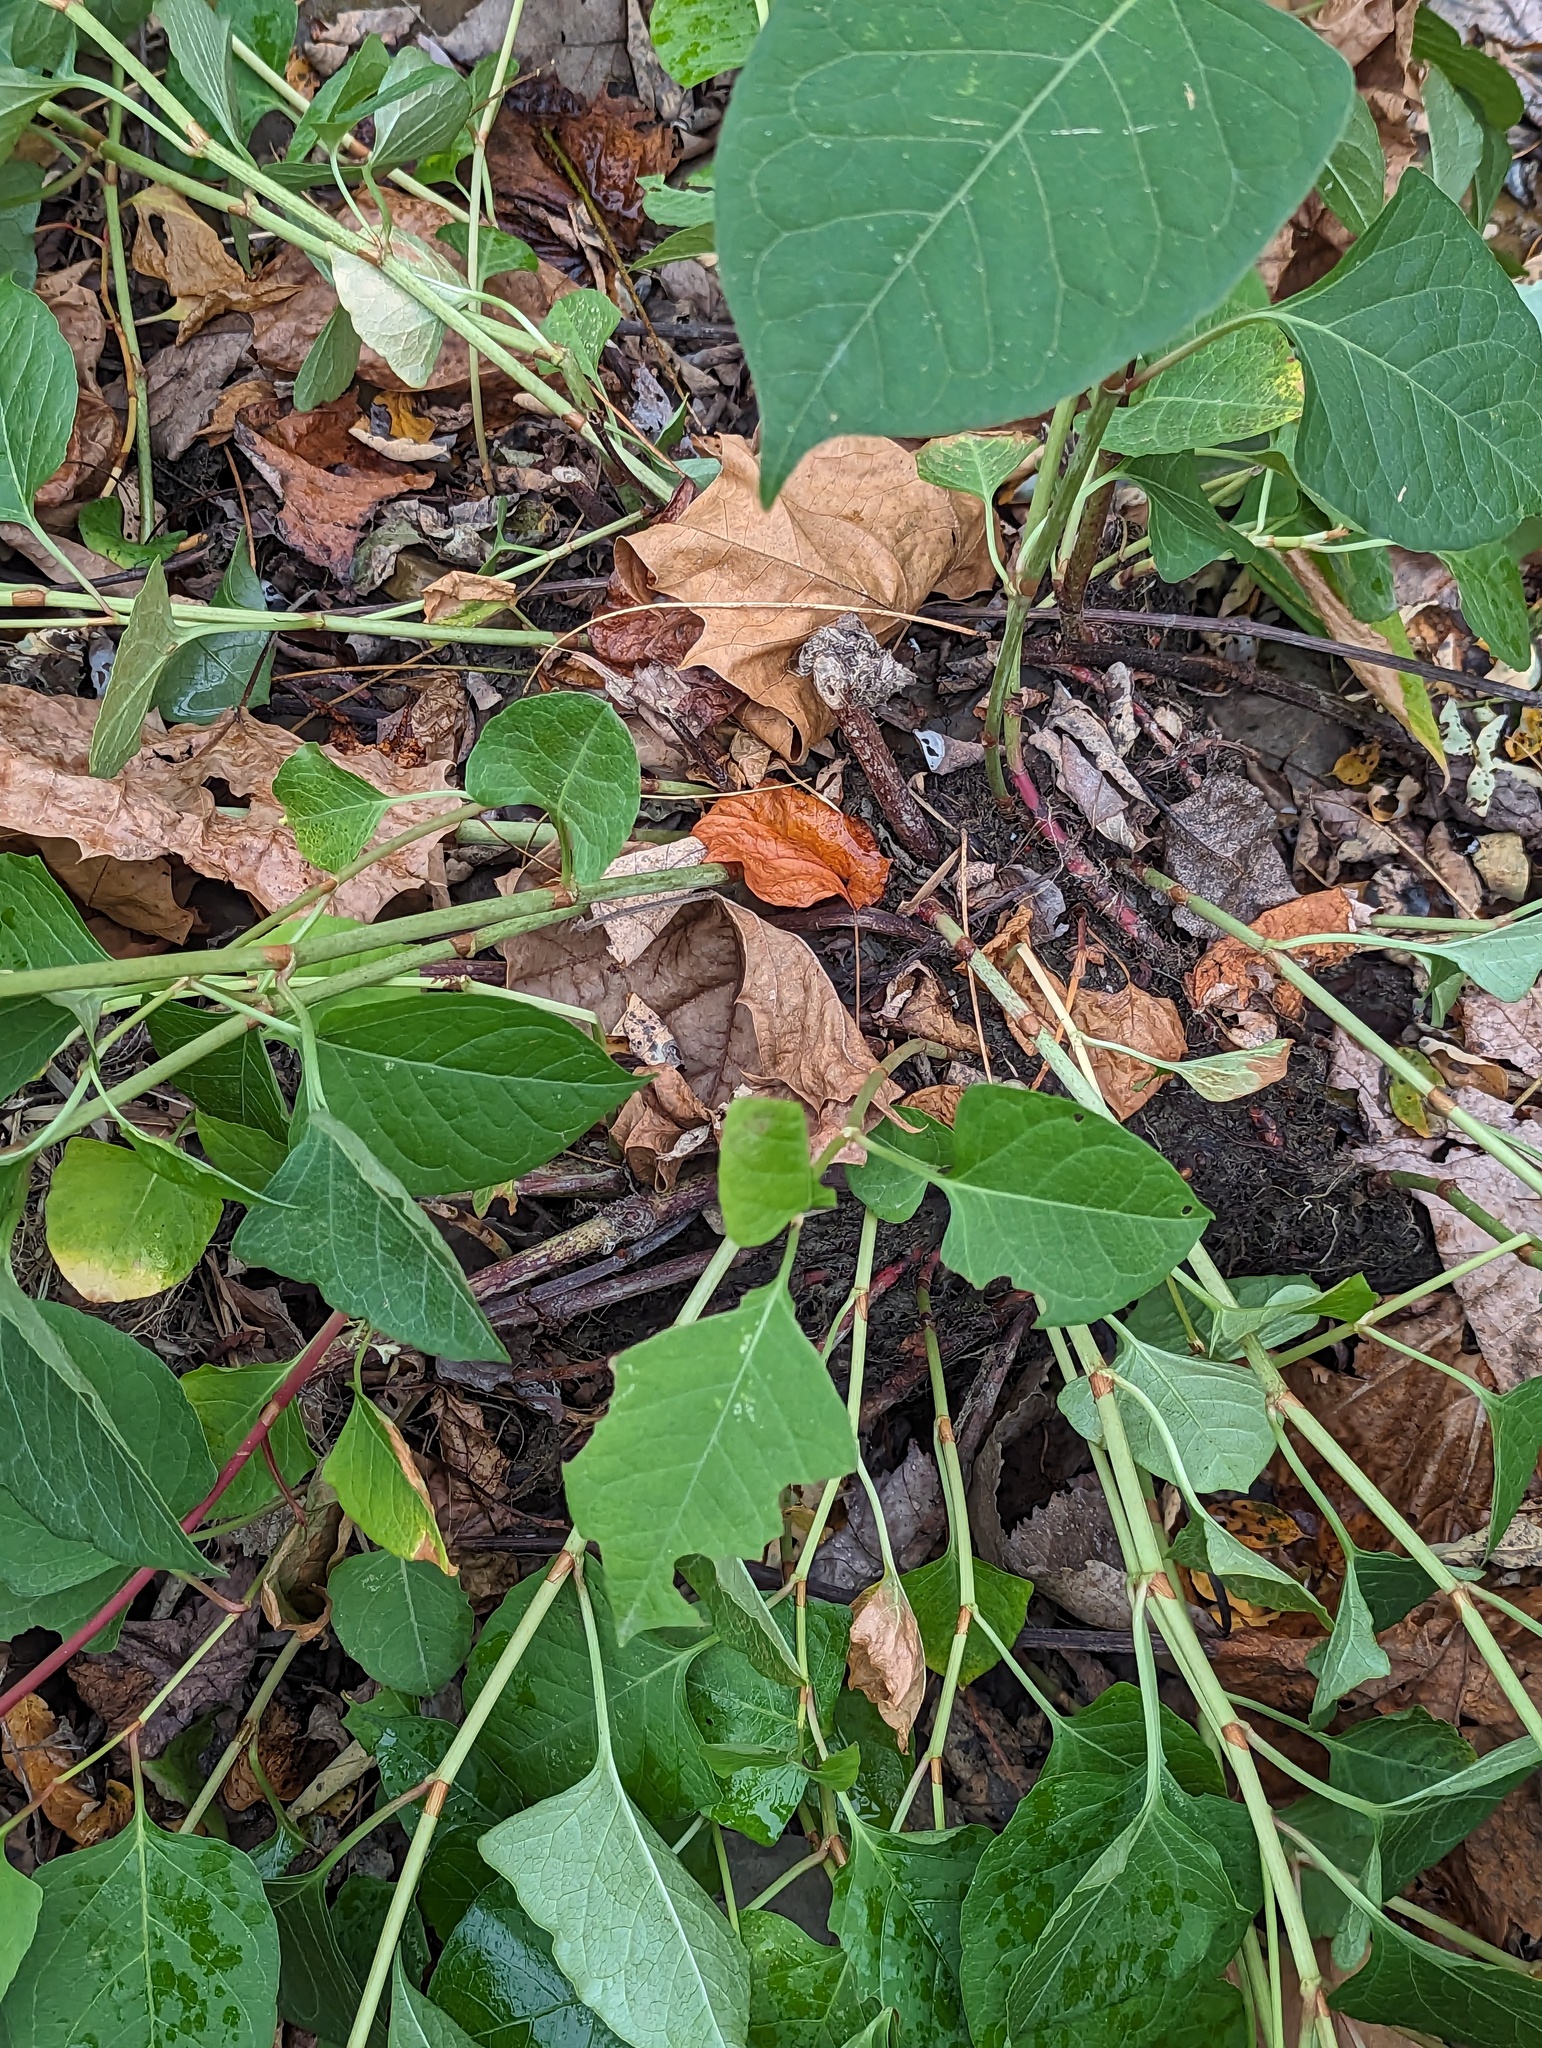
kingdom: Plantae
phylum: Tracheophyta
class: Magnoliopsida
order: Caryophyllales
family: Polygonaceae
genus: Reynoutria
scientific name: Reynoutria japonica
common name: Japanese knotweed
